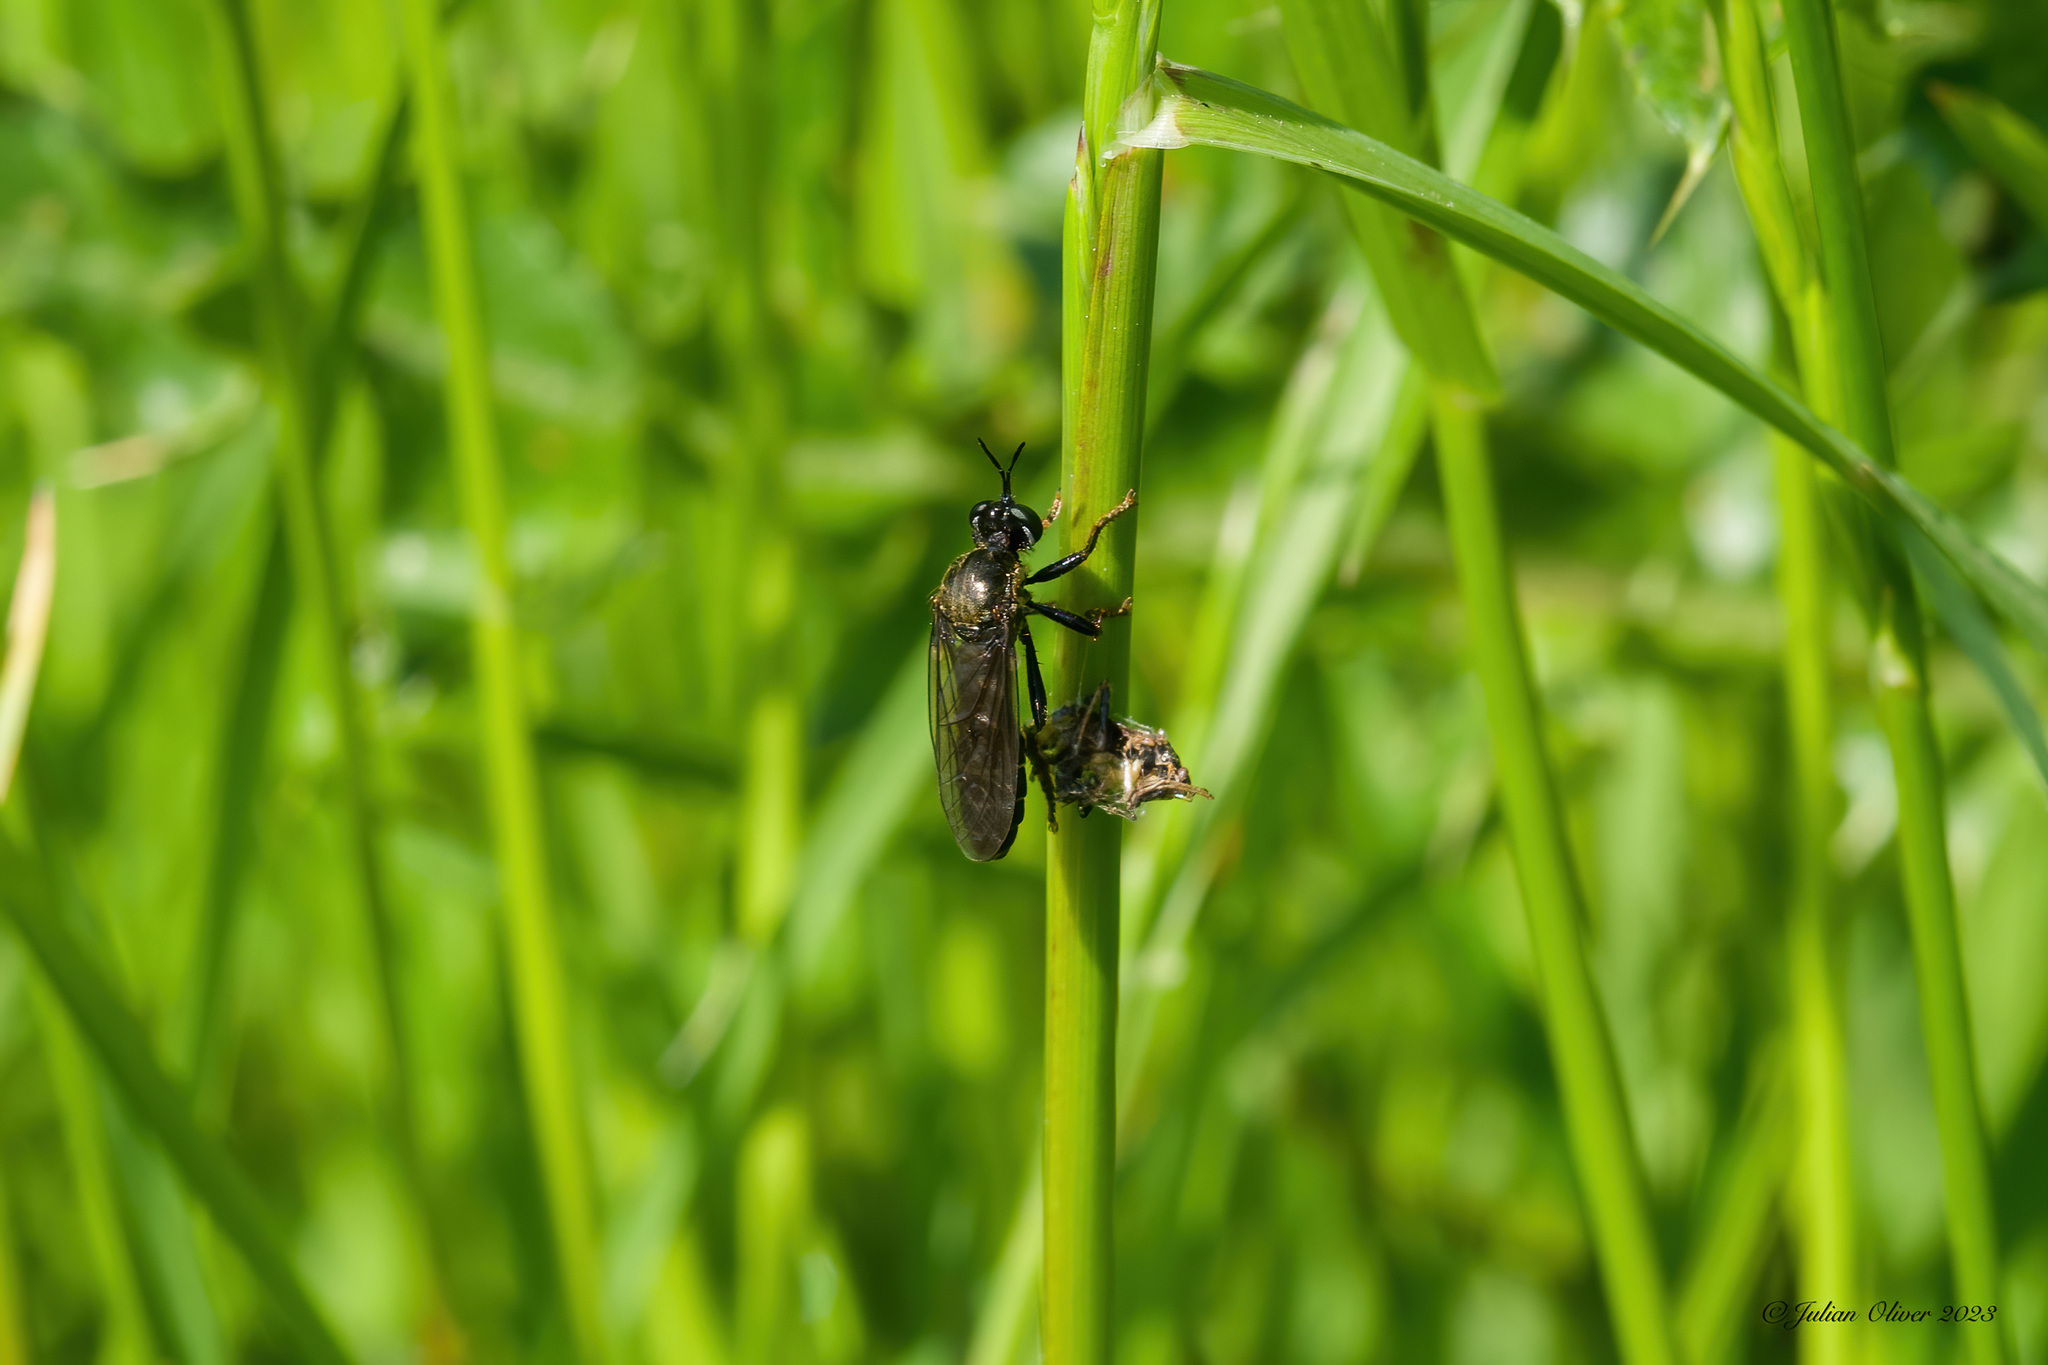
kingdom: Animalia
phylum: Arthropoda
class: Insecta
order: Diptera
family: Asilidae
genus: Dioctria
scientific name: Dioctria atricapilla
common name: Violet black-legged
